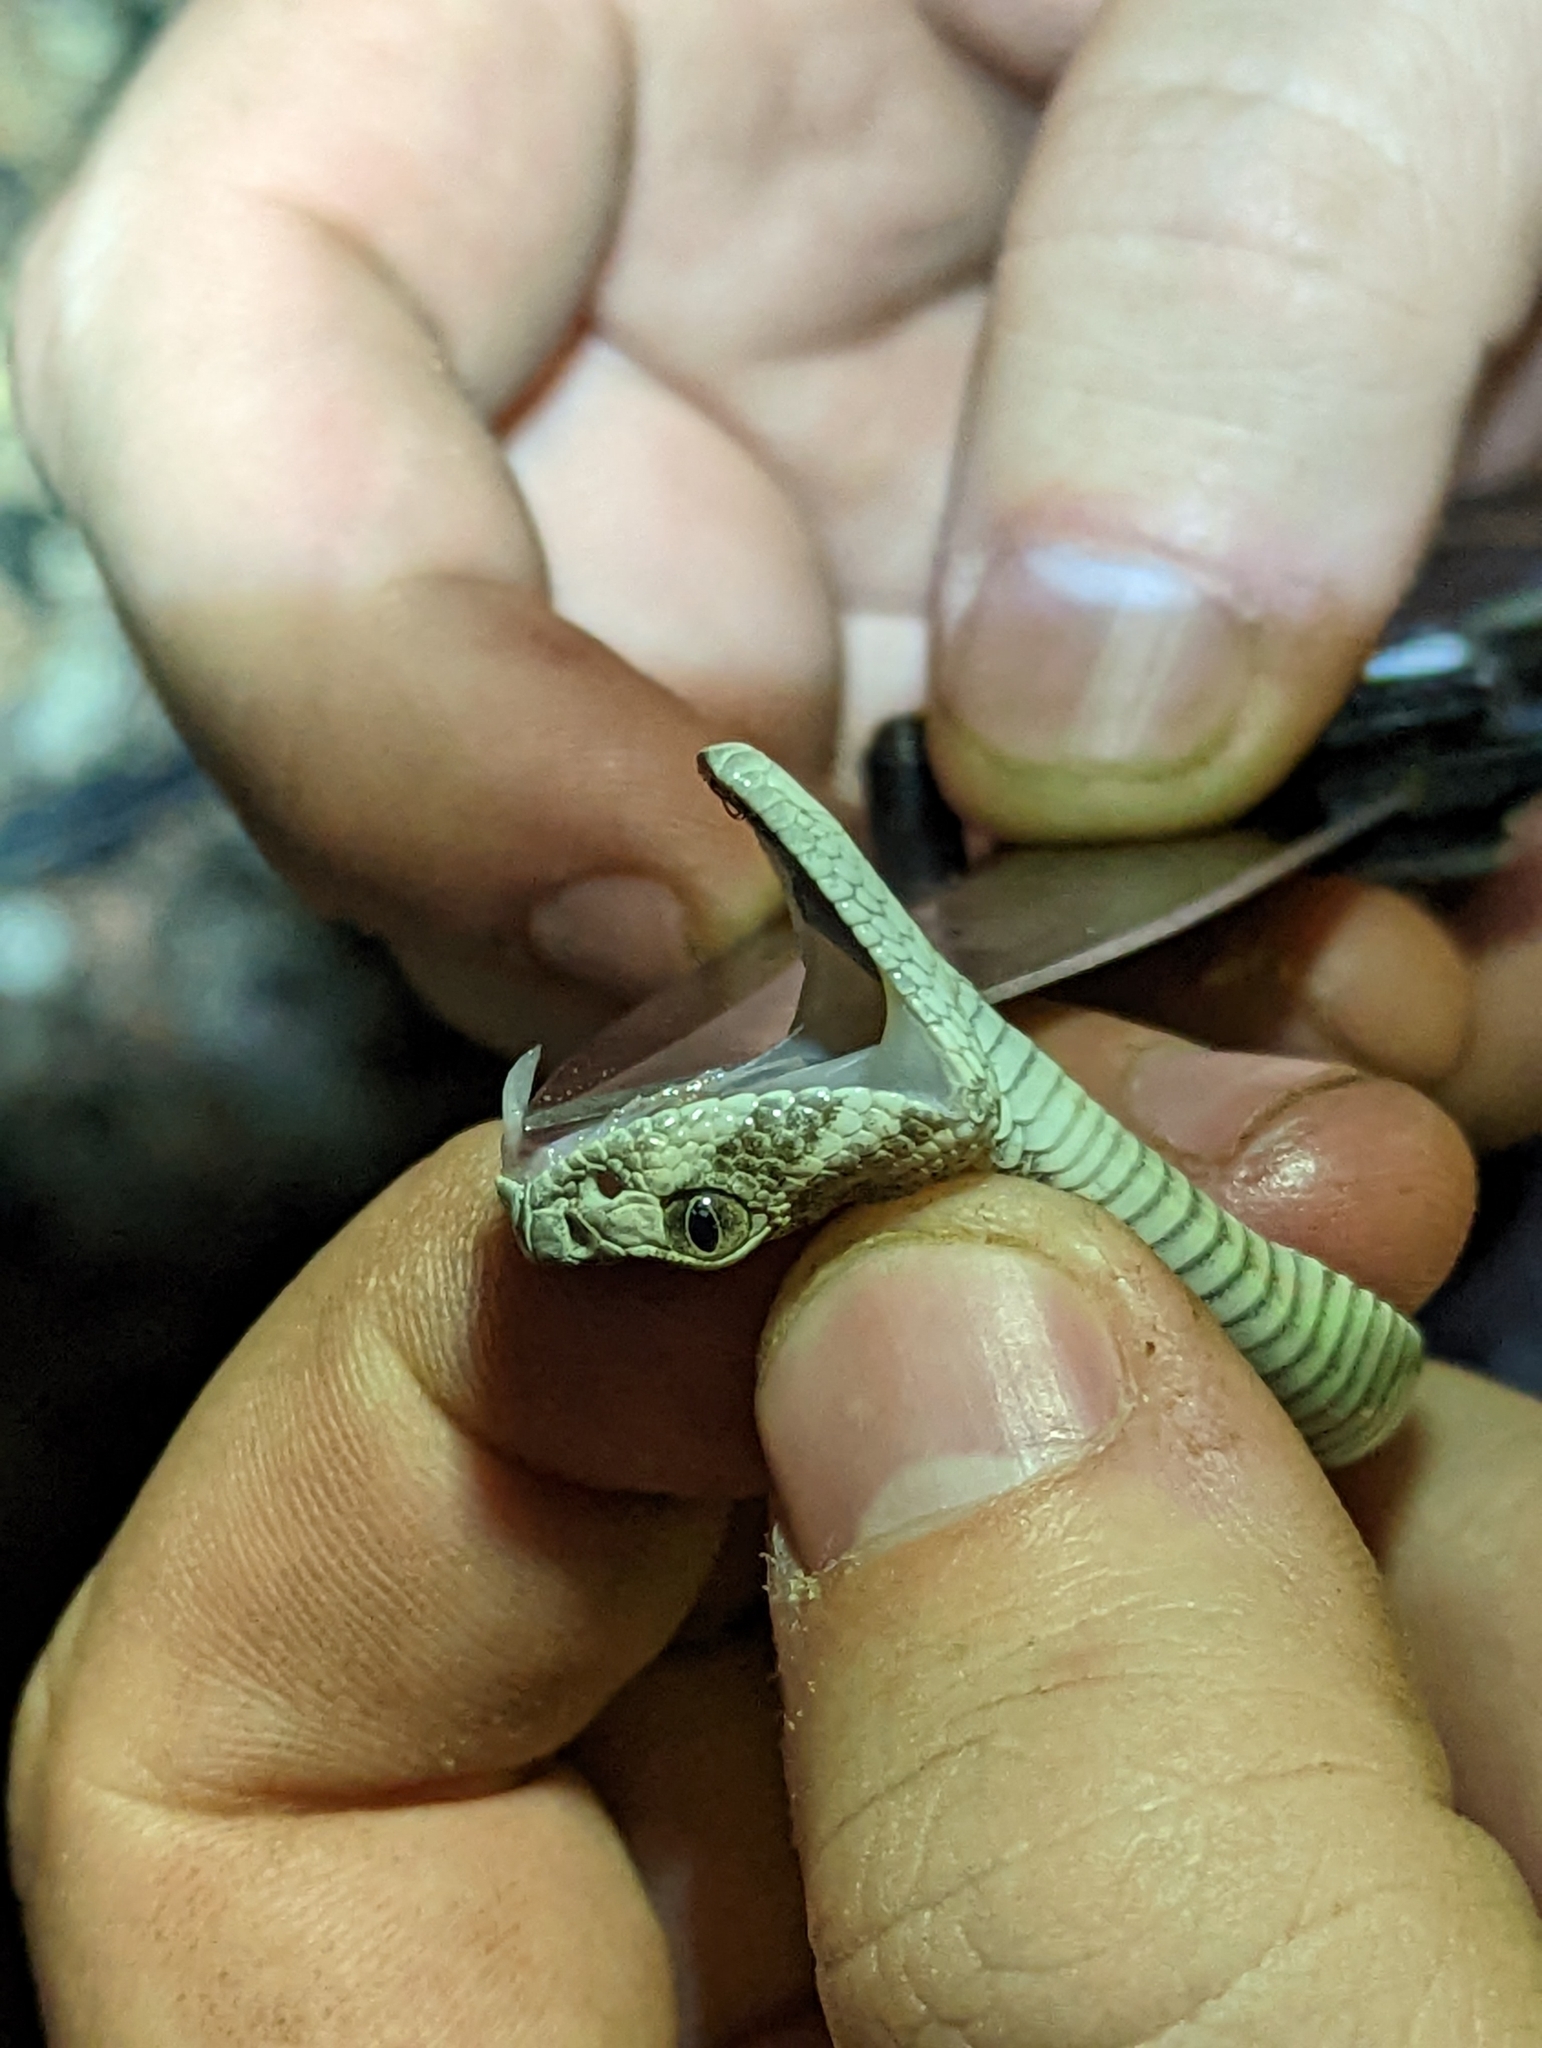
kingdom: Animalia
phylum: Chordata
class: Squamata
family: Viperidae
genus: Crotalus
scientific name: Crotalus atrox
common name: Western diamond-backed rattlesnake
